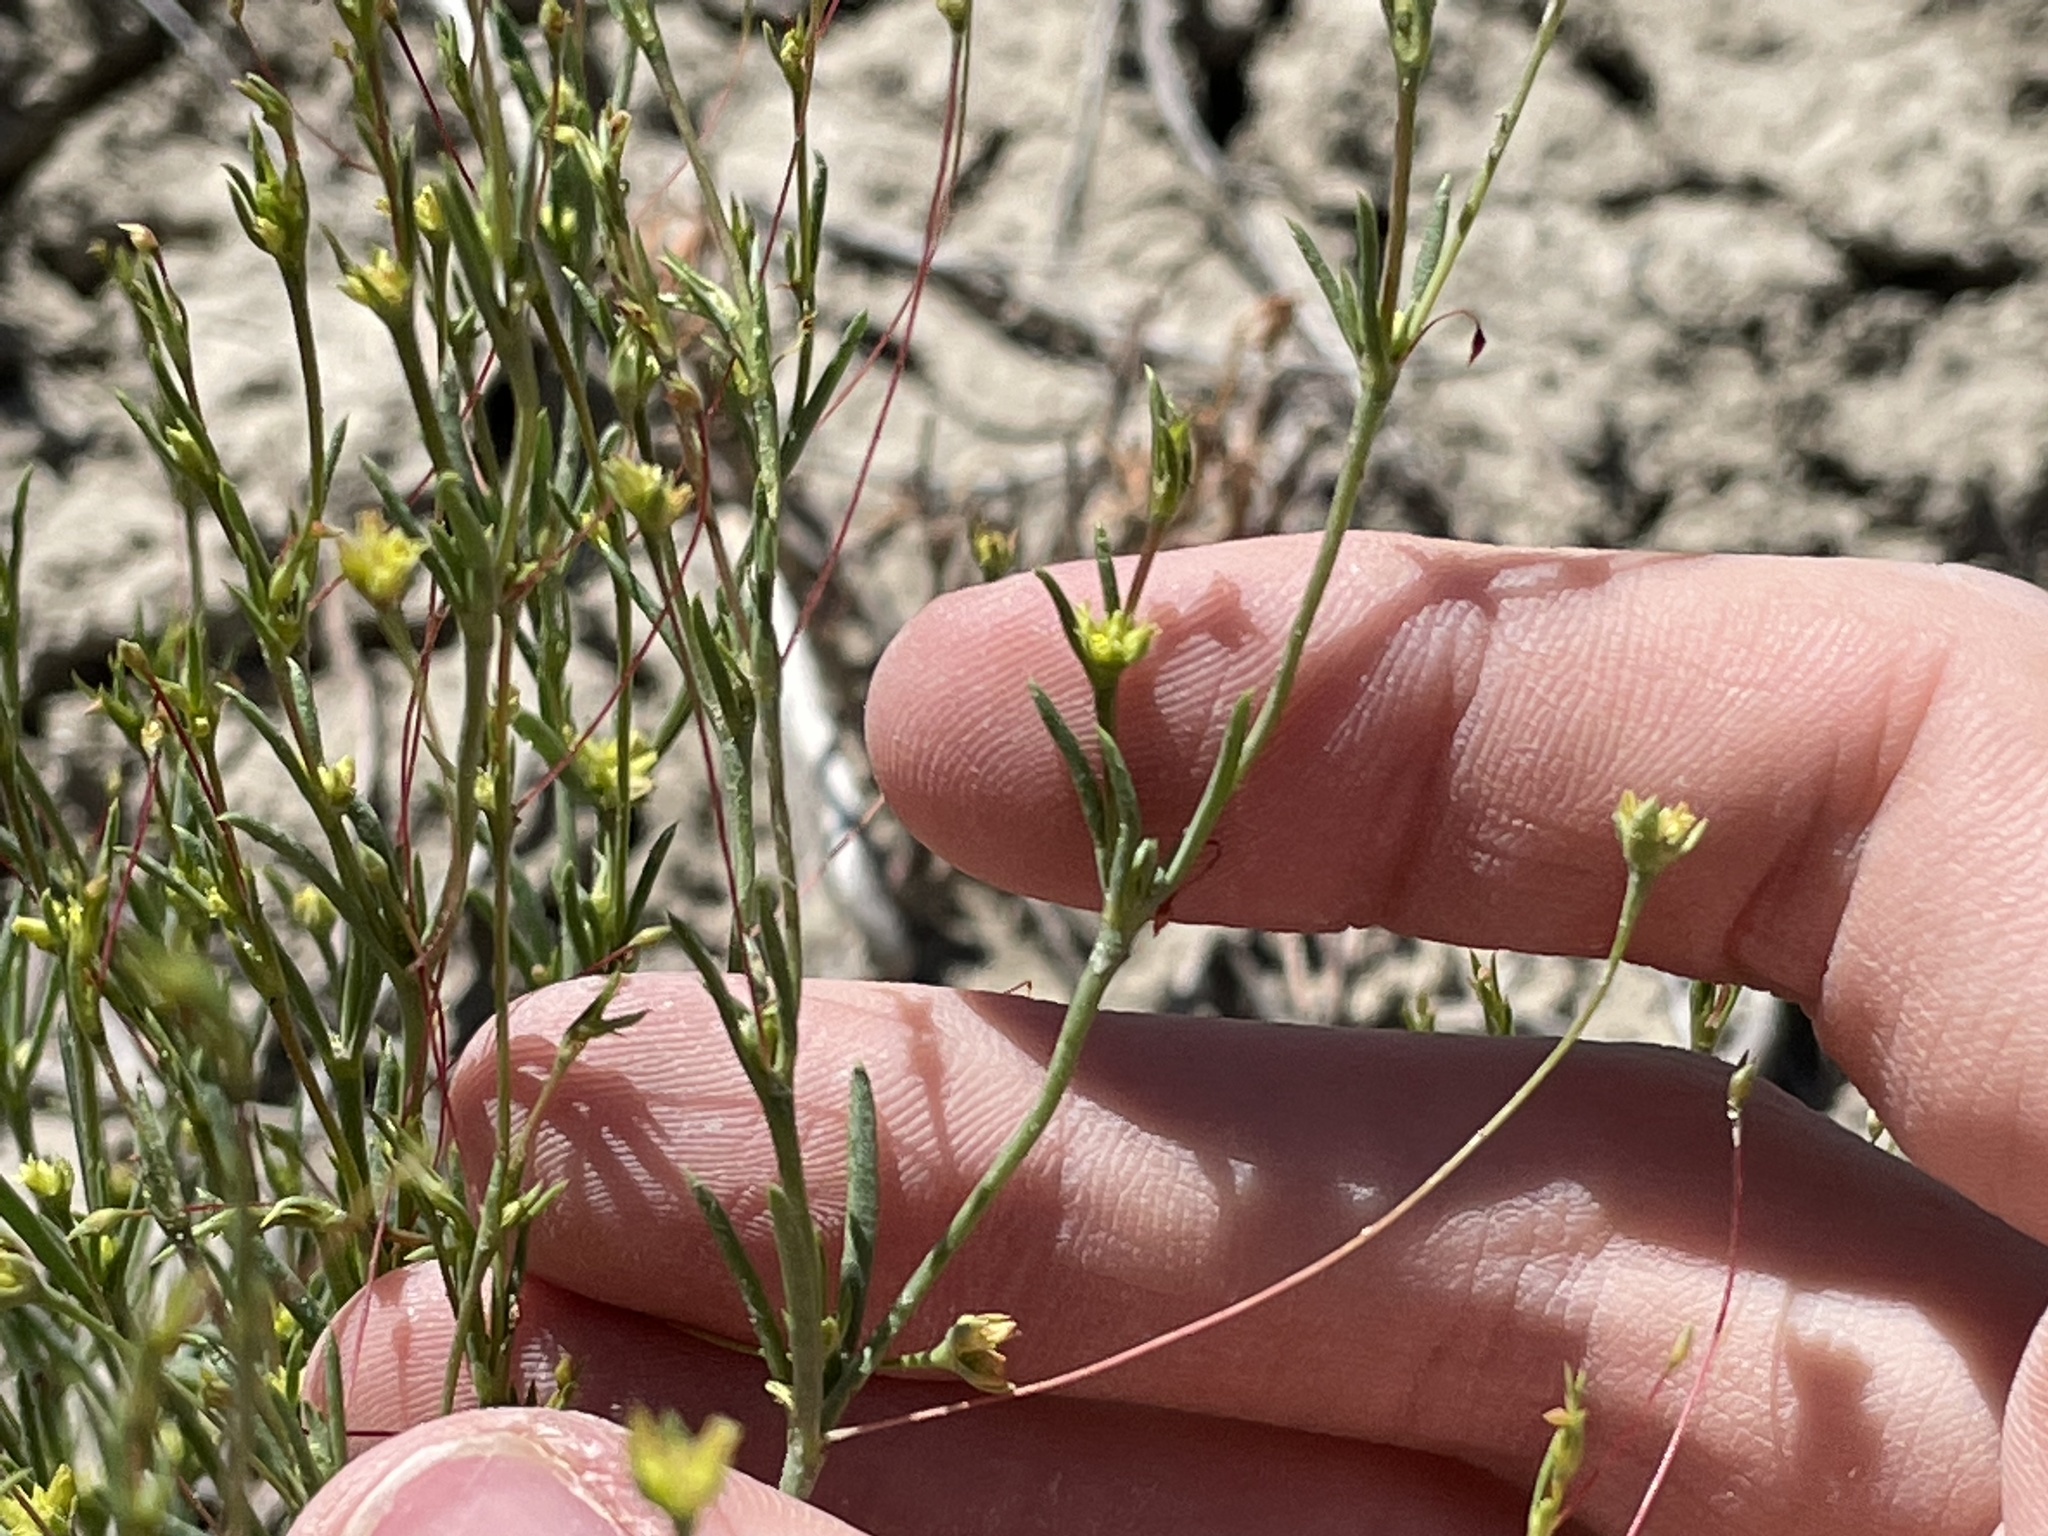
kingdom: Plantae
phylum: Tracheophyta
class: Magnoliopsida
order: Caryophyllales
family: Polygonaceae
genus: Stenogonum
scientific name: Stenogonum salsuginosum
